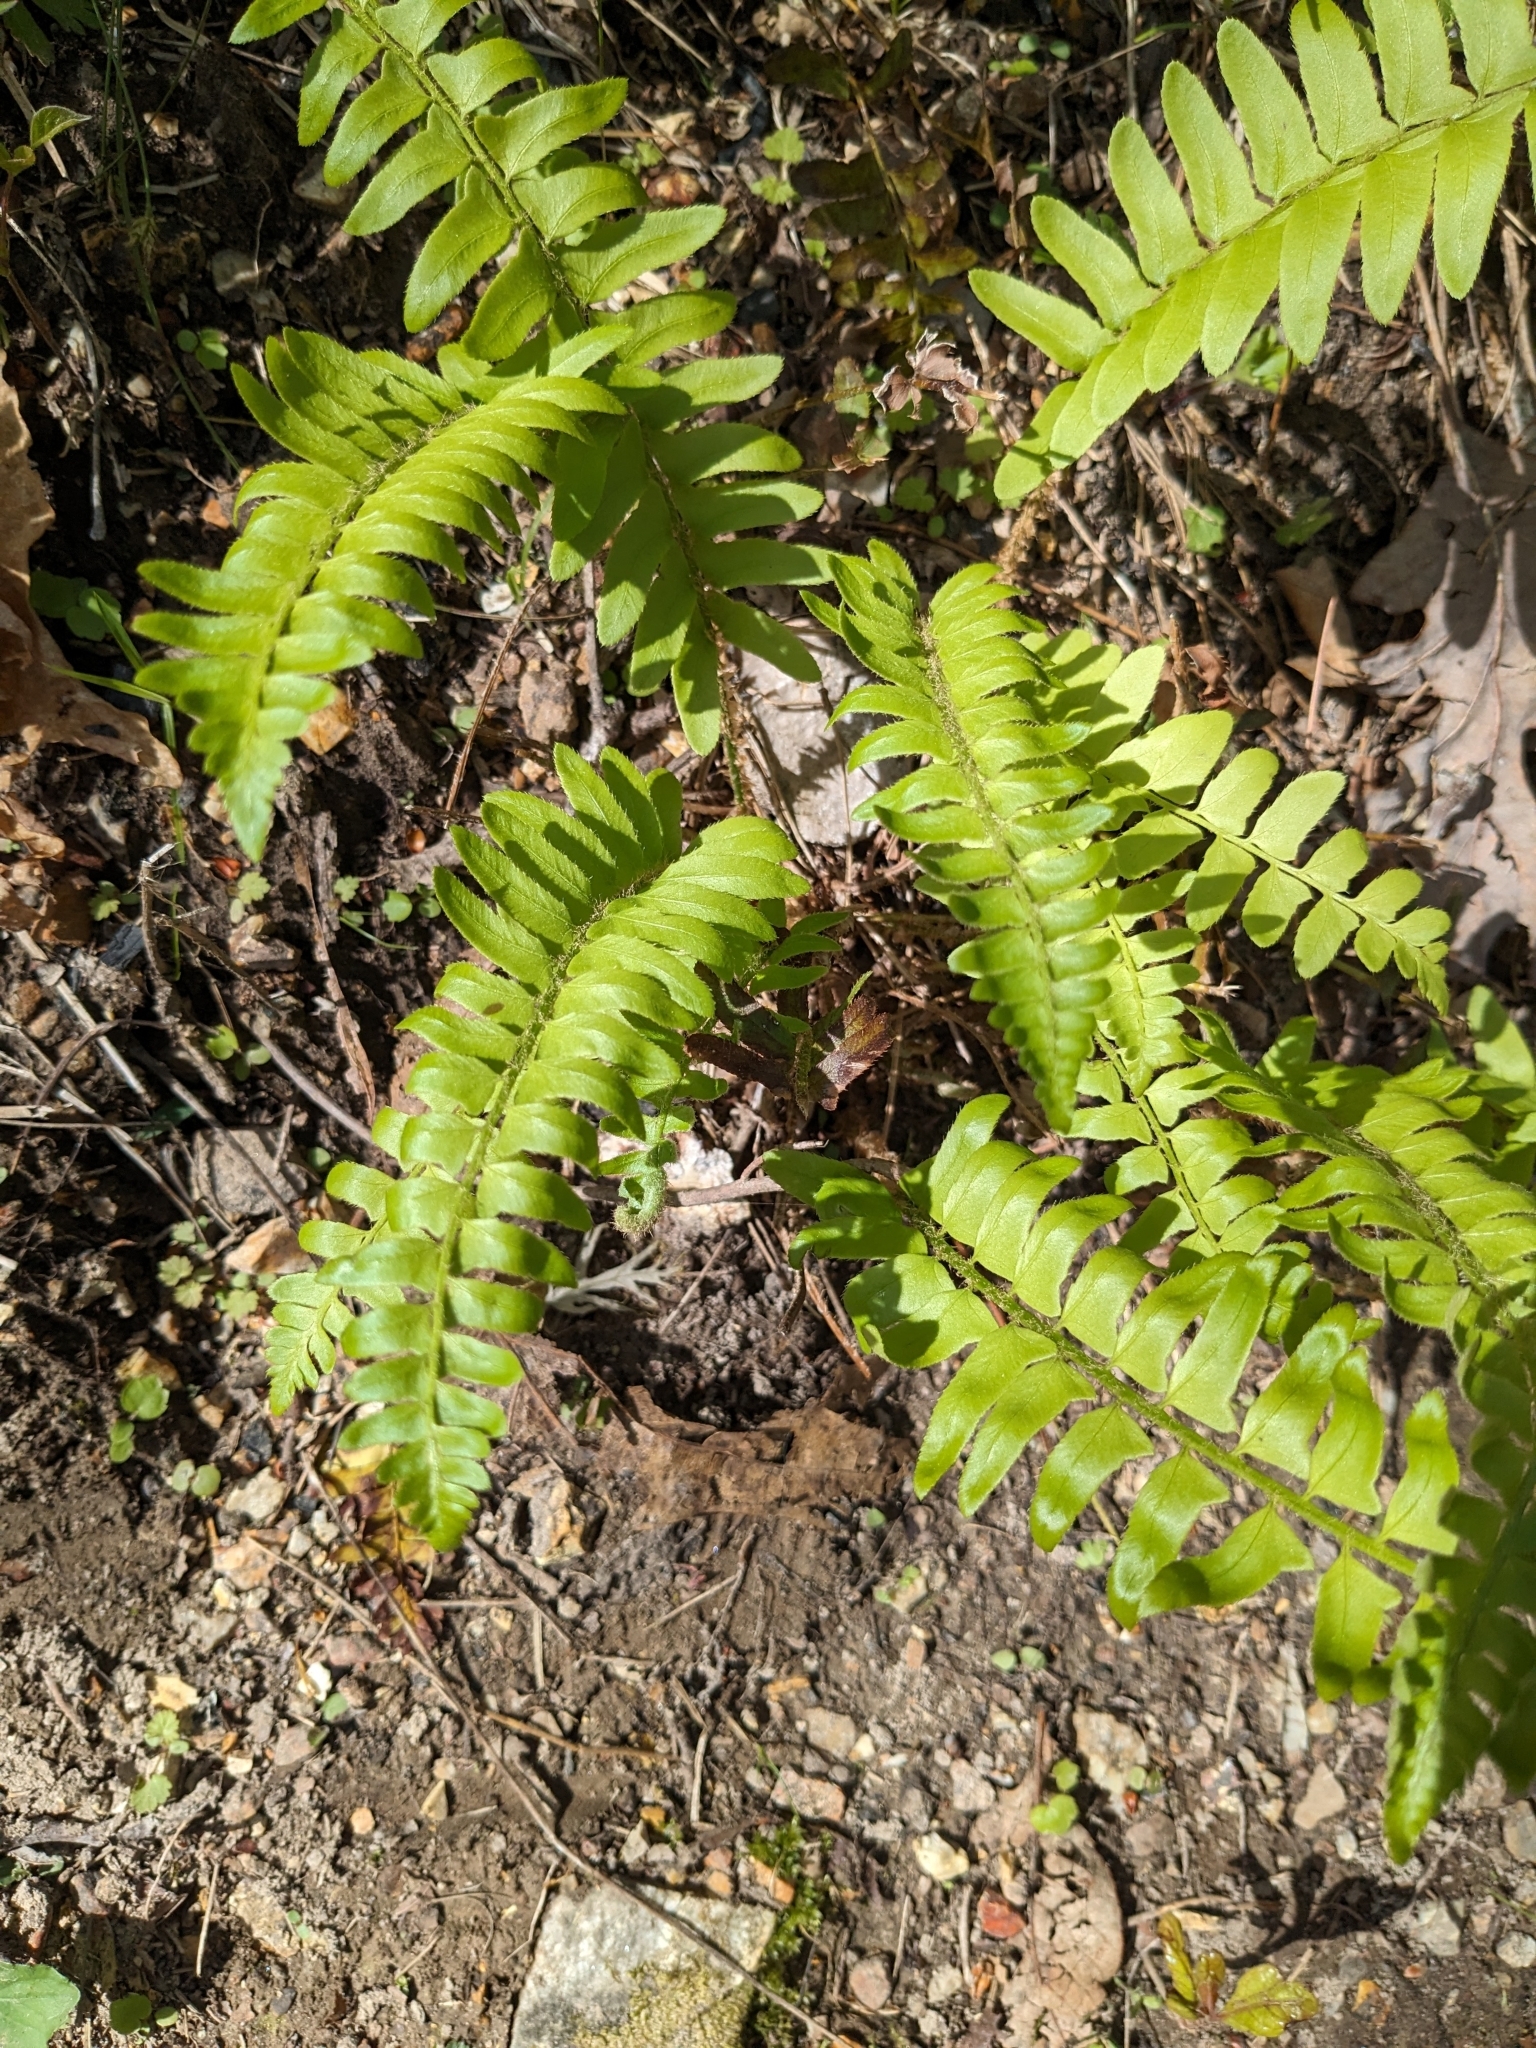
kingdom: Plantae
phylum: Tracheophyta
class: Polypodiopsida
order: Polypodiales
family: Dryopteridaceae
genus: Polystichum
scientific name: Polystichum acrostichoides
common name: Christmas fern
